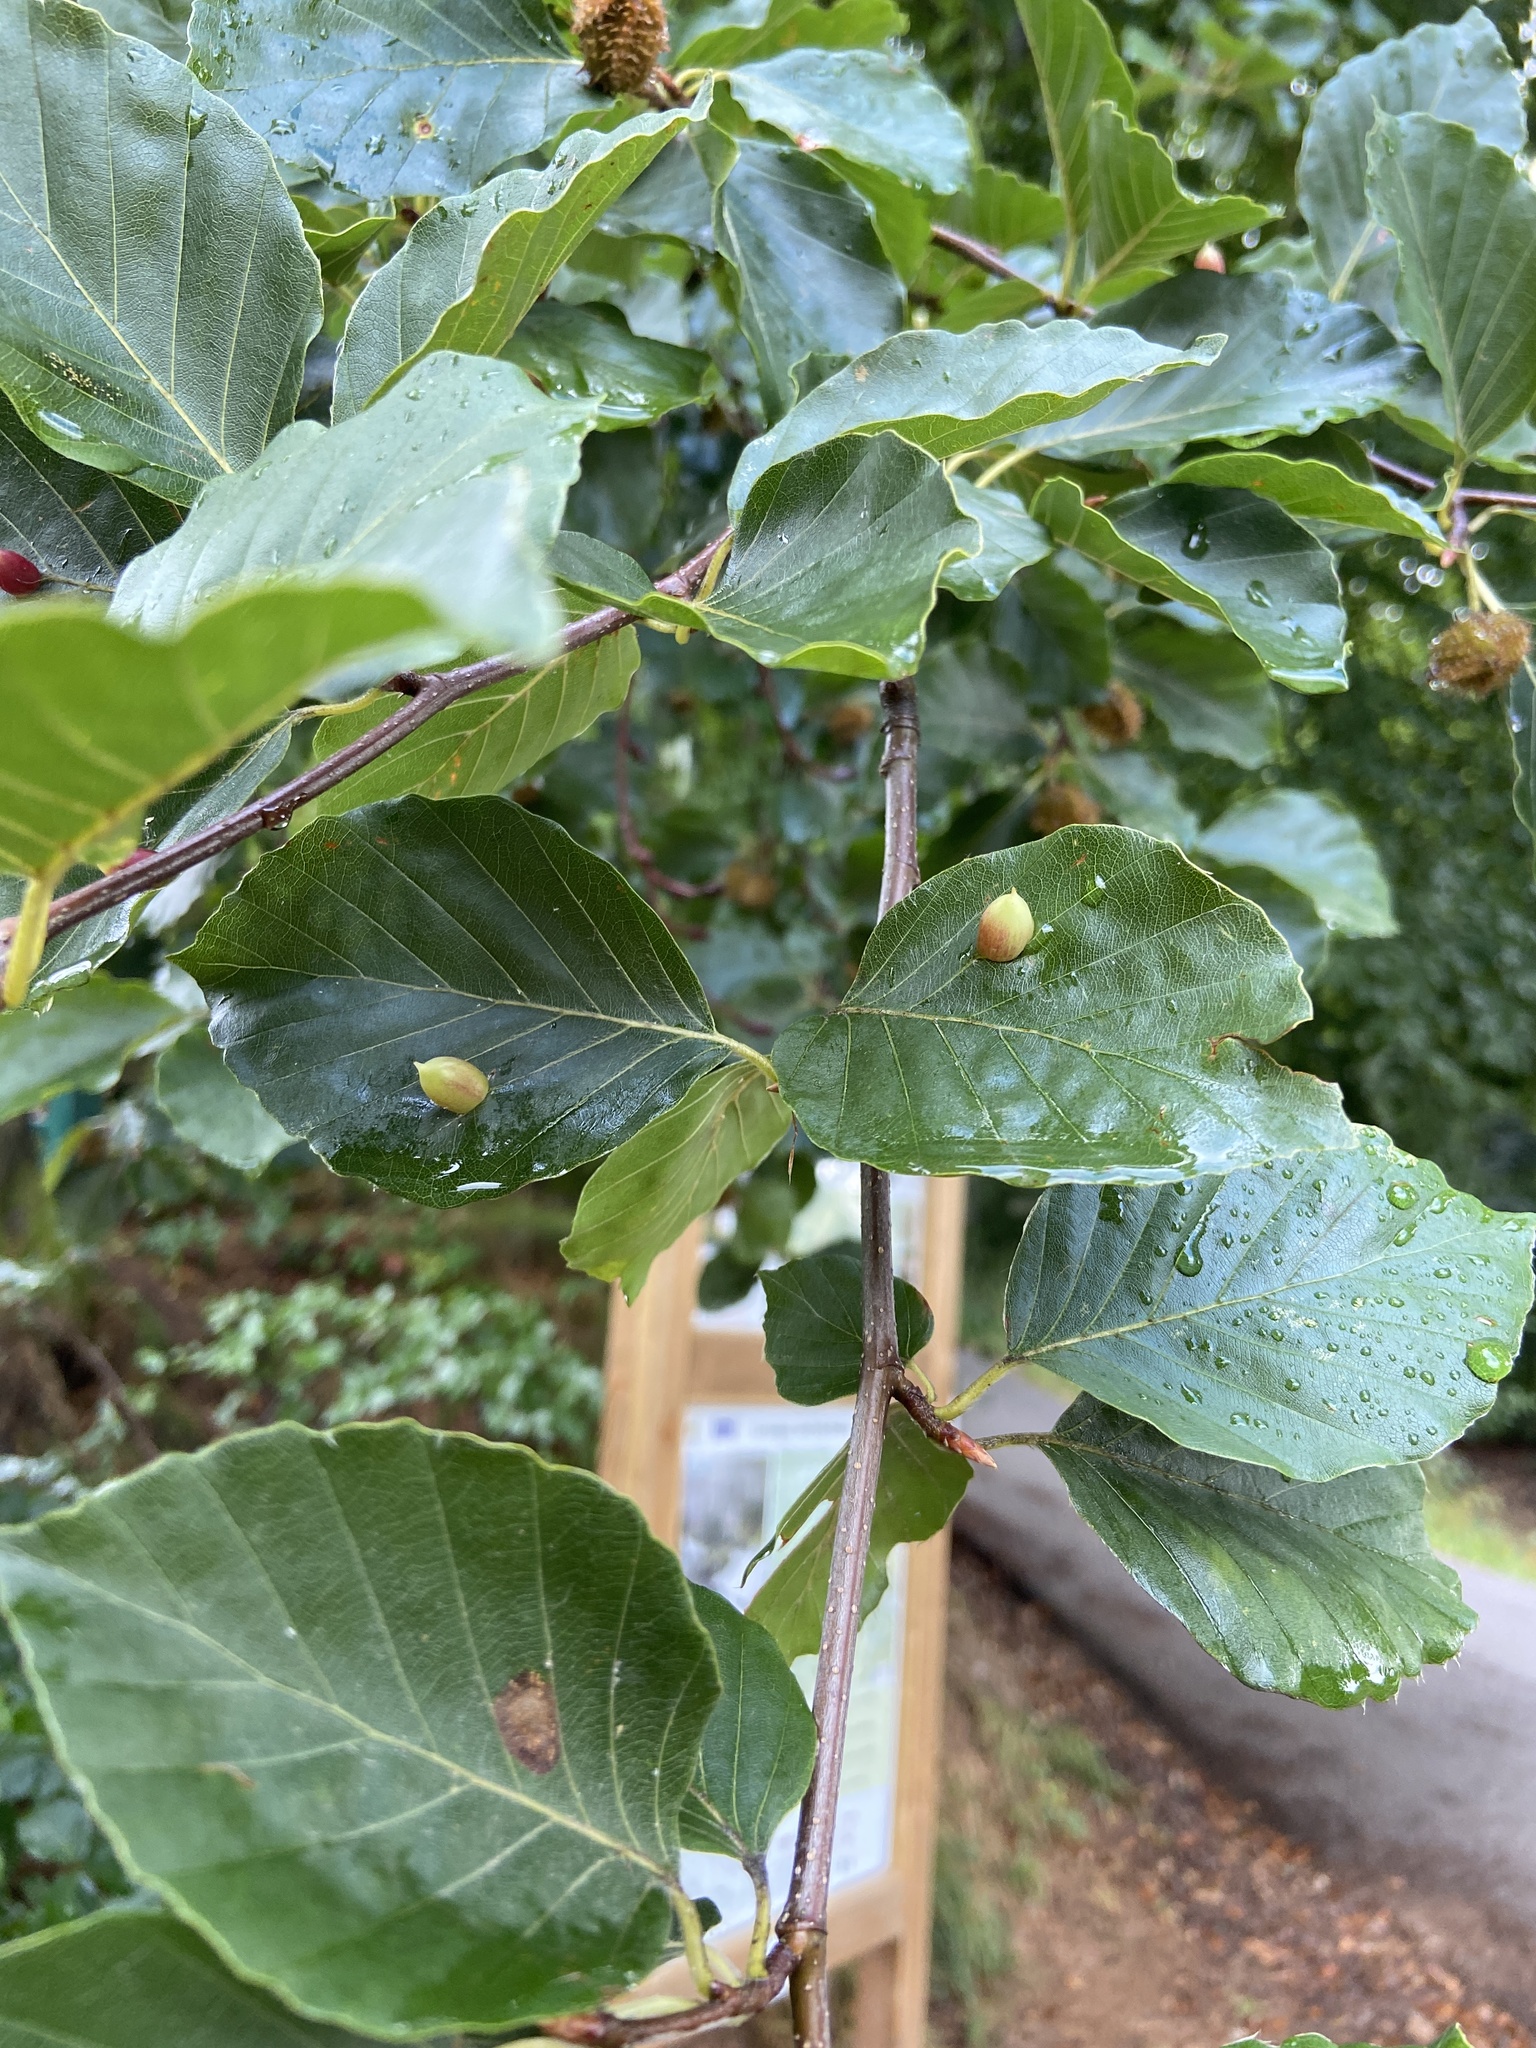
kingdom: Animalia
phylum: Arthropoda
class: Insecta
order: Diptera
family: Cecidomyiidae
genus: Mikiola
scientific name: Mikiola fagi
